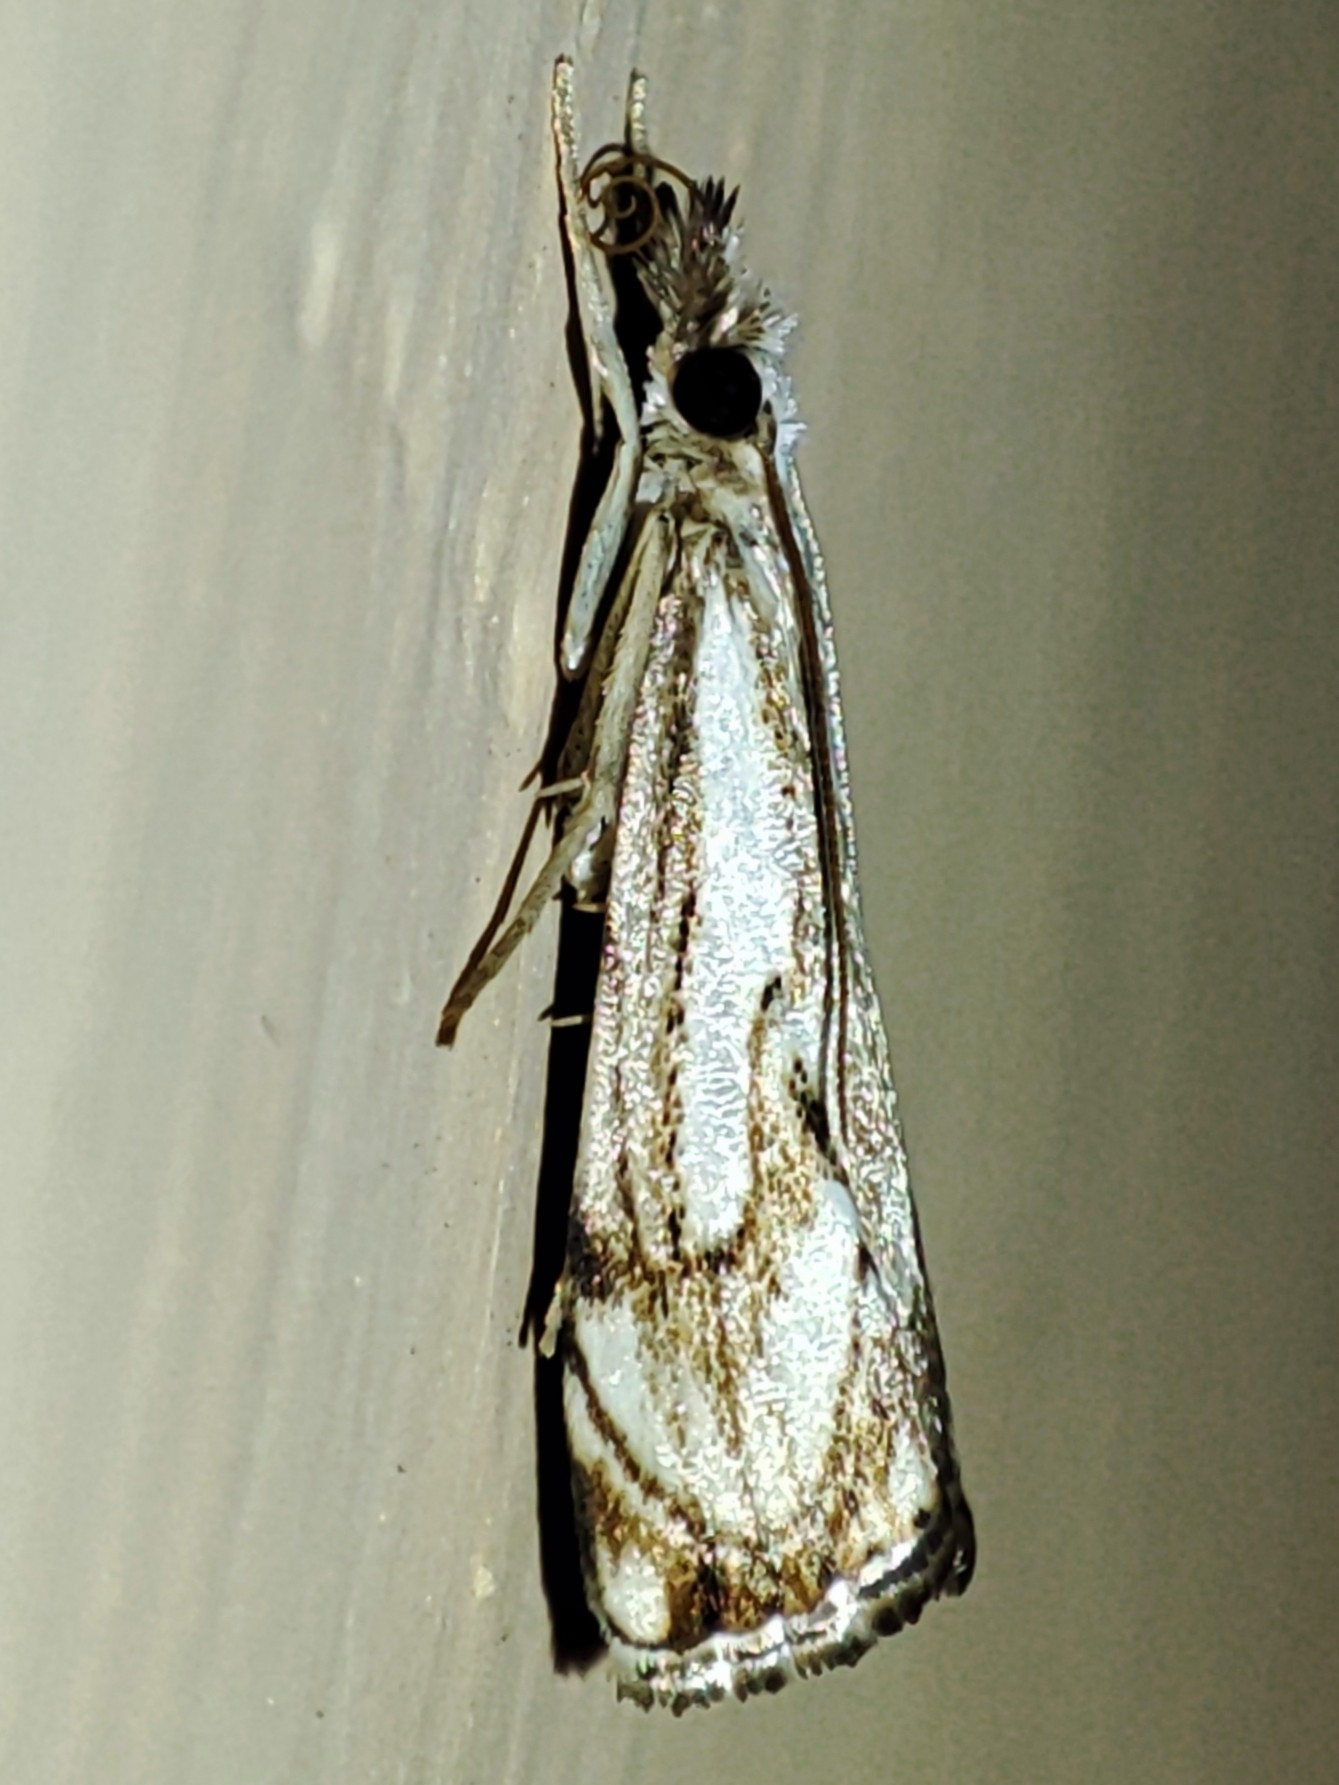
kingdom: Animalia
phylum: Arthropoda
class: Insecta
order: Lepidoptera
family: Crambidae
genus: Catoptria
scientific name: Catoptria falsella
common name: Chequered grass-veneer
